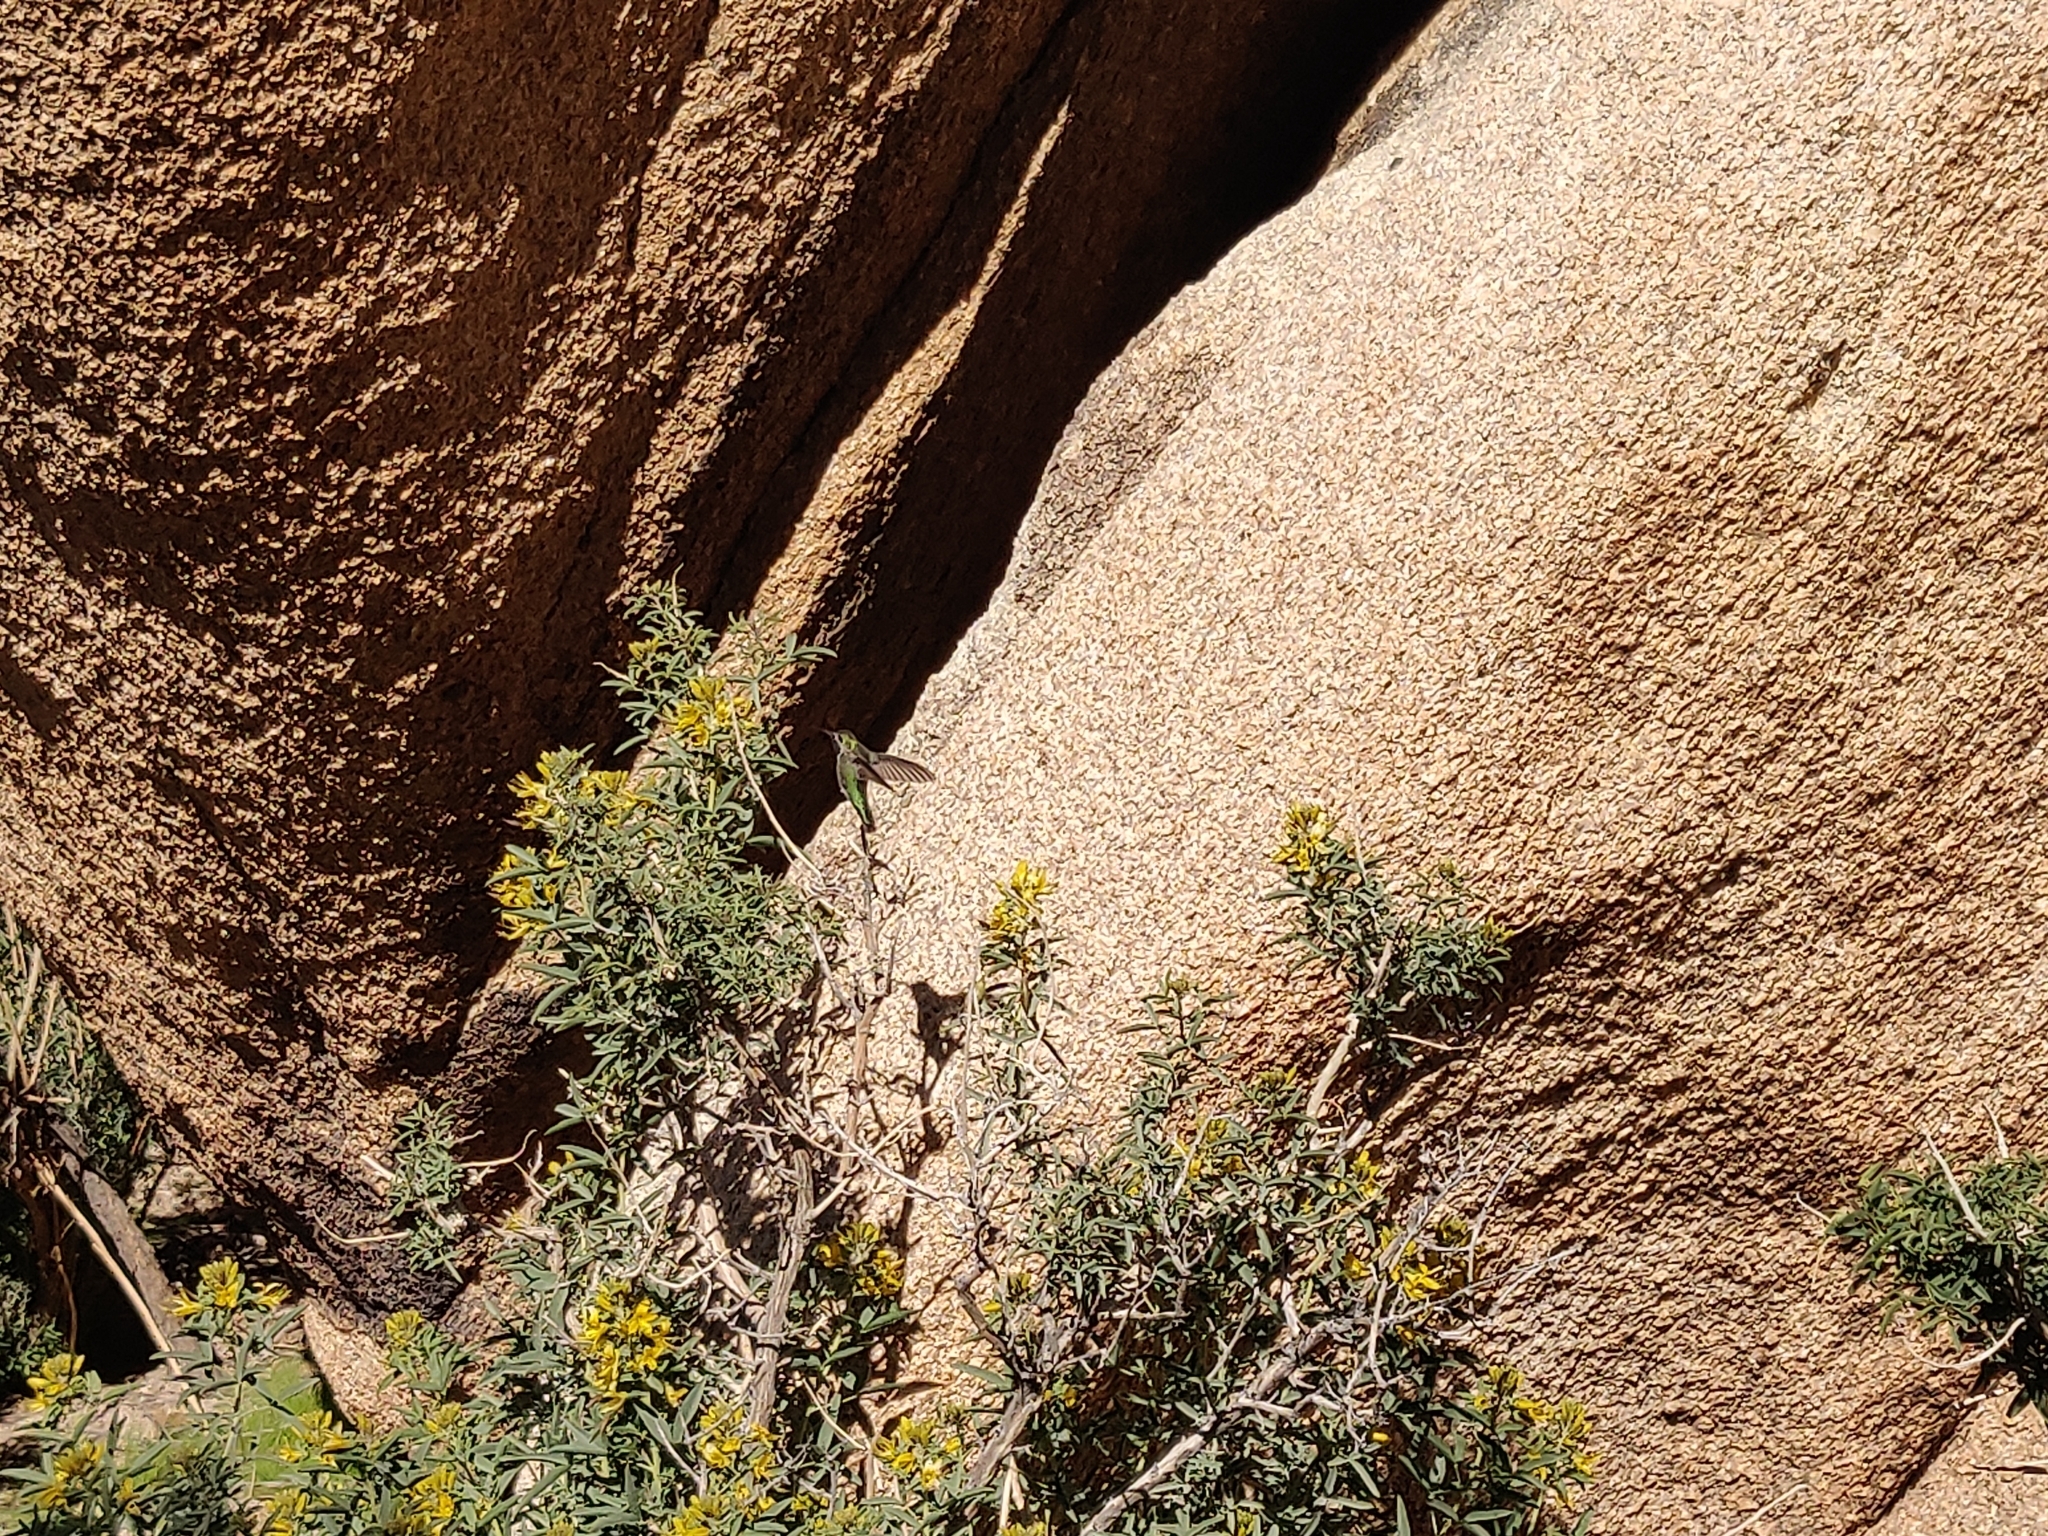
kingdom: Animalia
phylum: Chordata
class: Aves
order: Apodiformes
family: Trochilidae
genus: Calypte
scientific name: Calypte anna
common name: Anna's hummingbird
